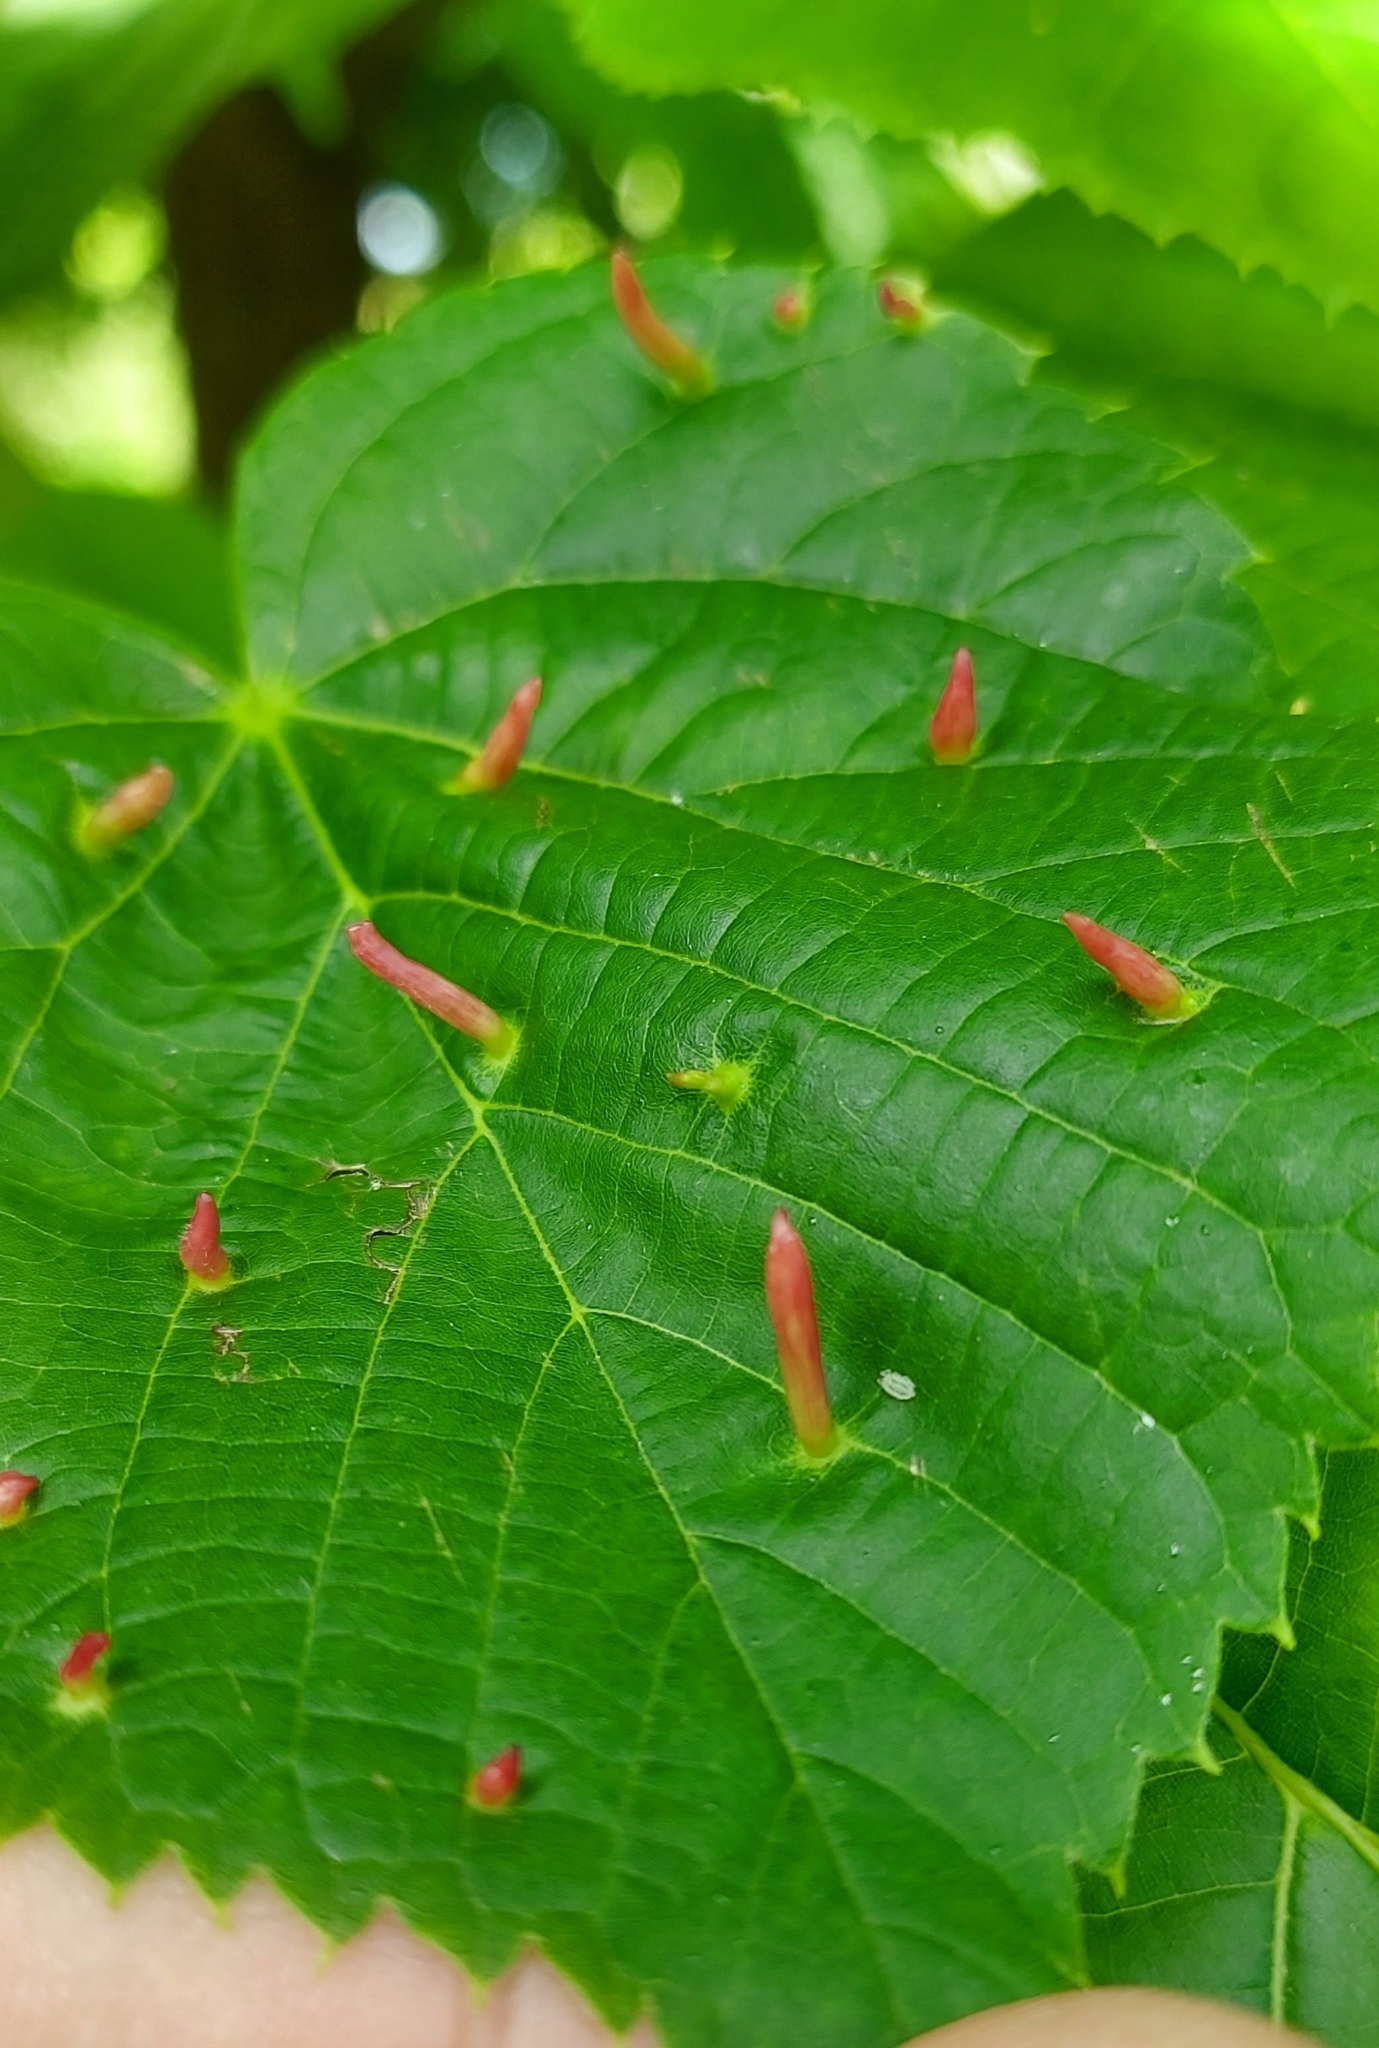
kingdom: Animalia
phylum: Arthropoda
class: Arachnida
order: Trombidiformes
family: Eriophyidae
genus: Eriophyes
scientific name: Eriophyes tiliae
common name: Red nail gall mite
